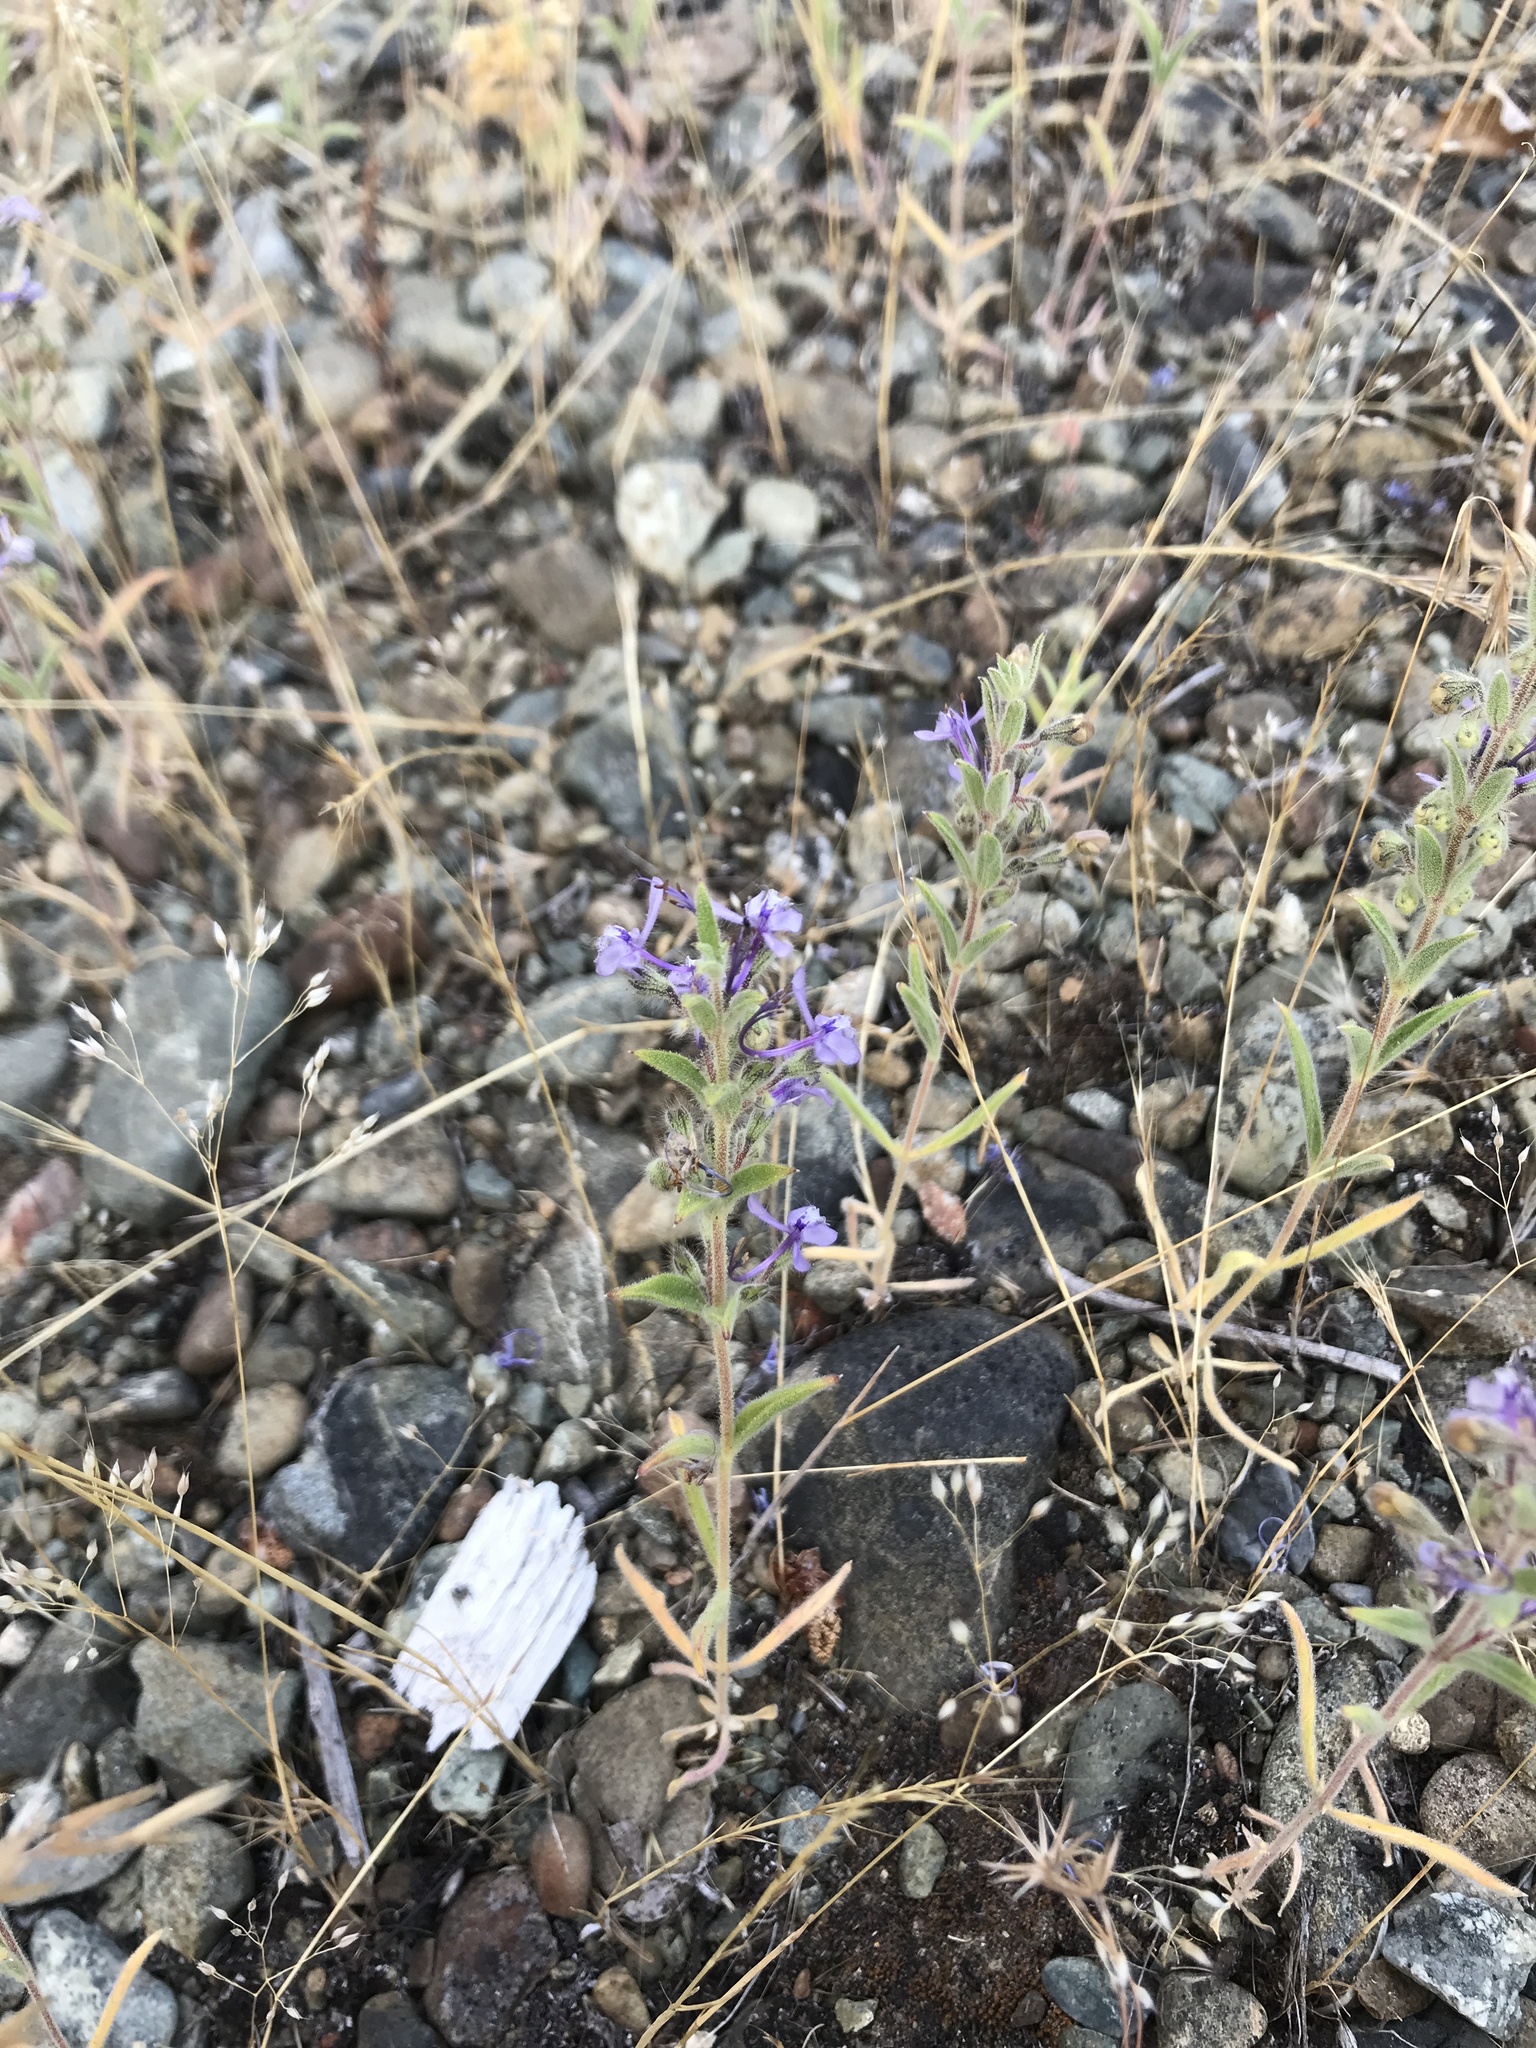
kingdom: Plantae
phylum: Tracheophyta
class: Magnoliopsida
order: Lamiales
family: Lamiaceae
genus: Trichostema
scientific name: Trichostema lanceolatum
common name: Vinegar-weed
